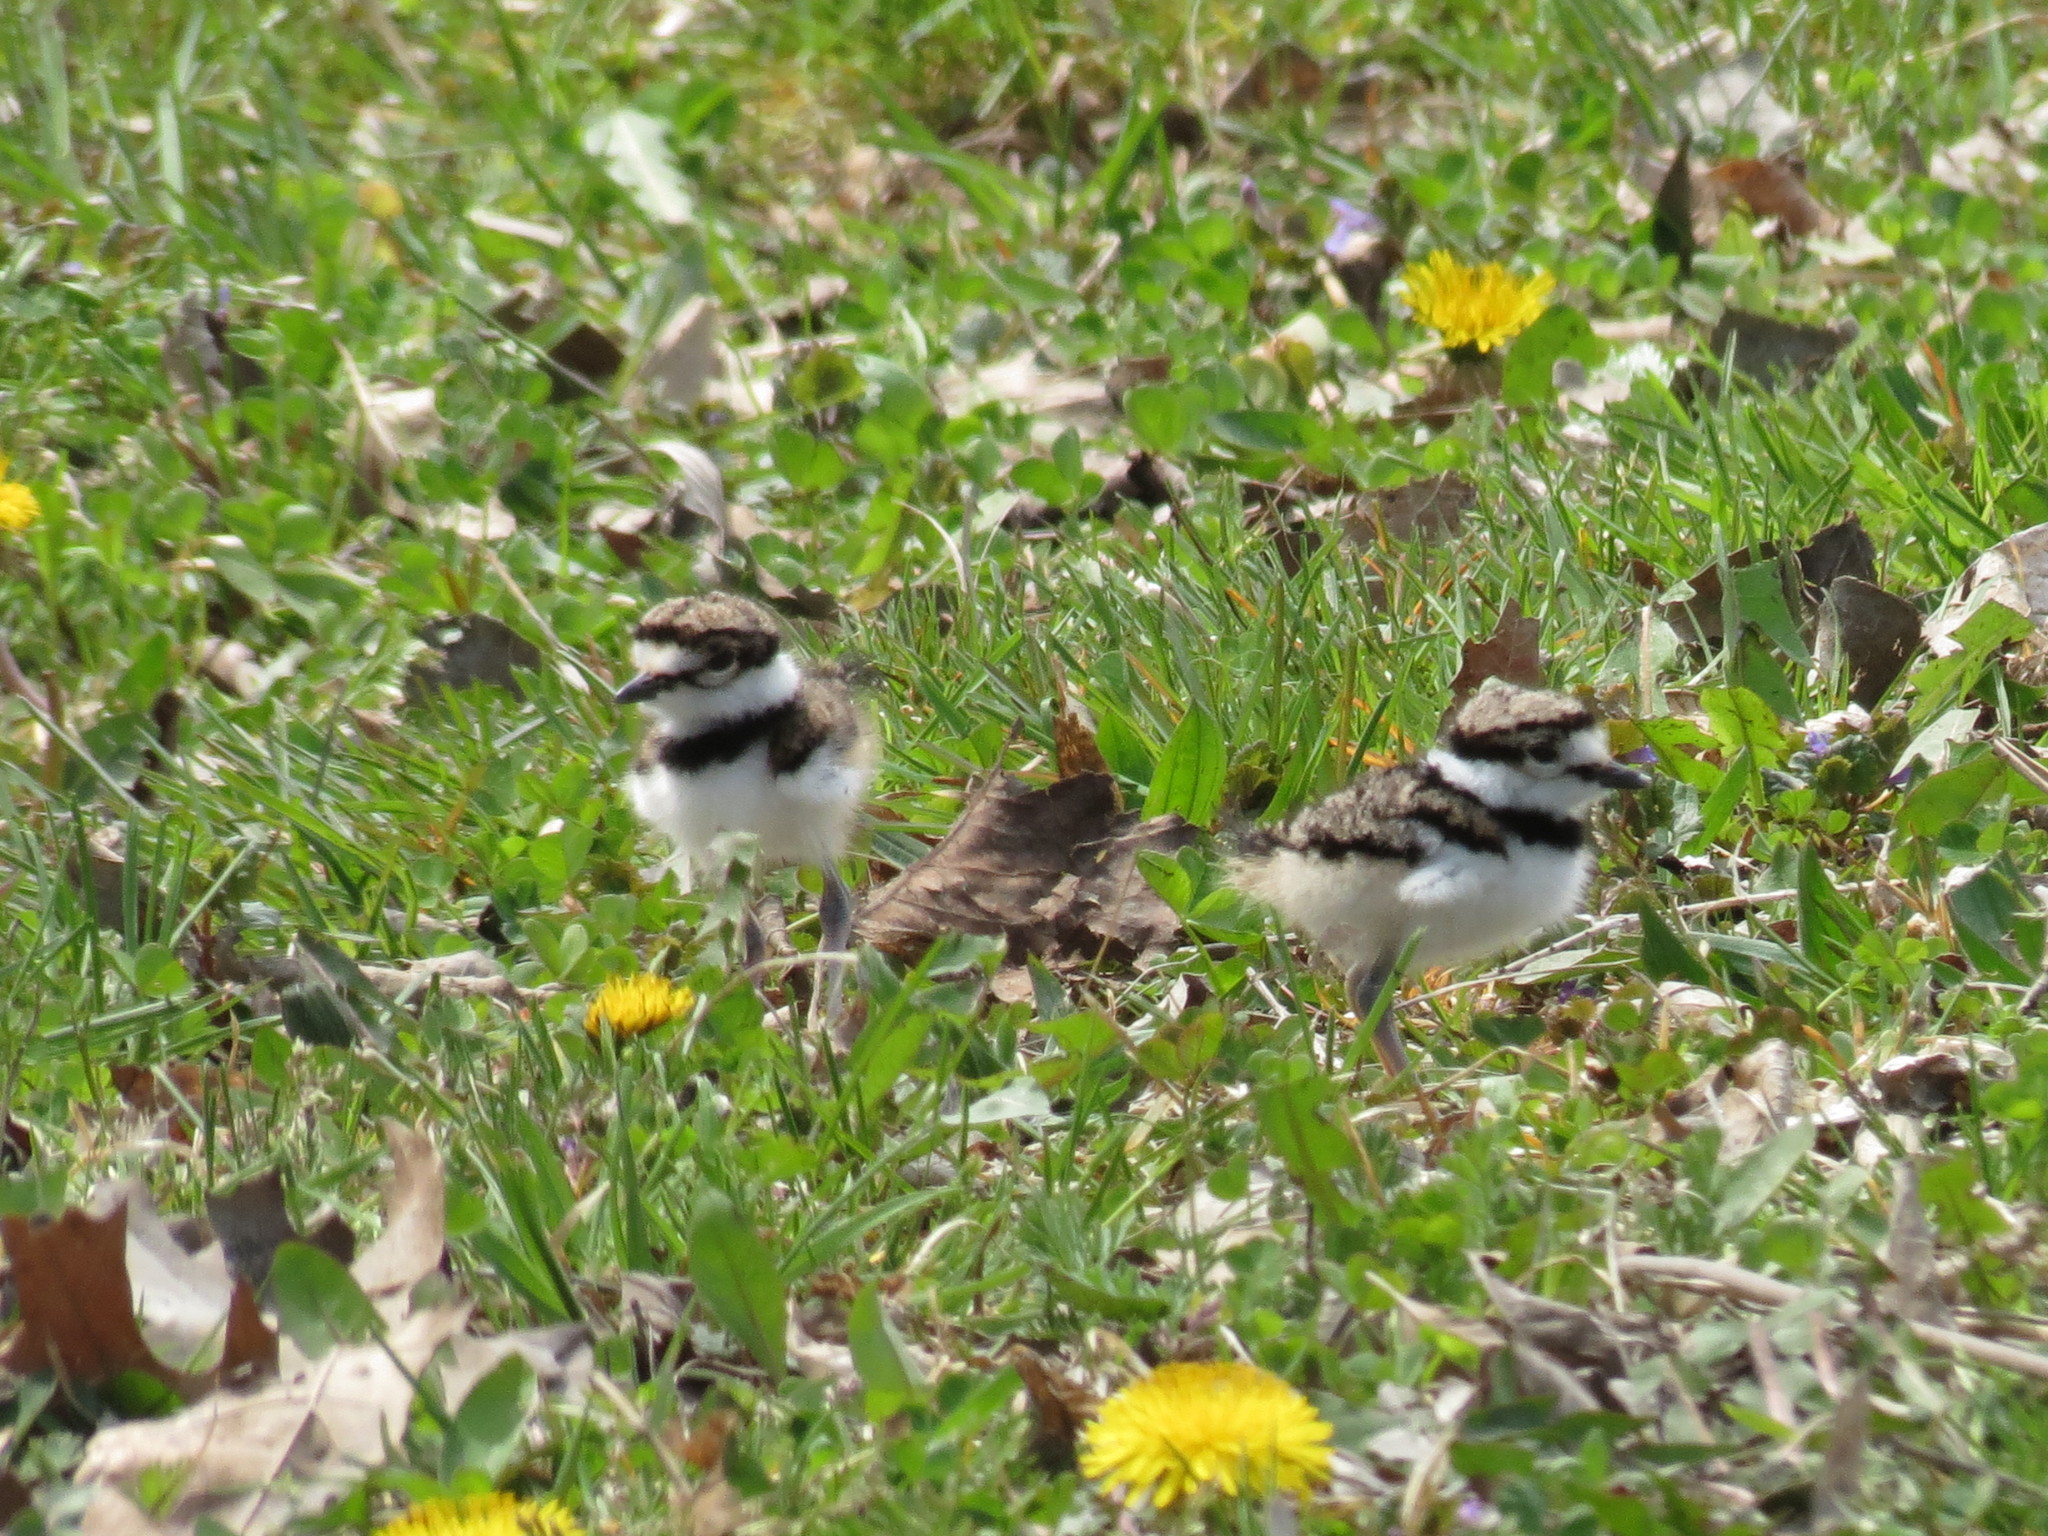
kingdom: Animalia
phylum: Chordata
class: Aves
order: Charadriiformes
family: Charadriidae
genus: Charadrius
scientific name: Charadrius vociferus
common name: Killdeer
